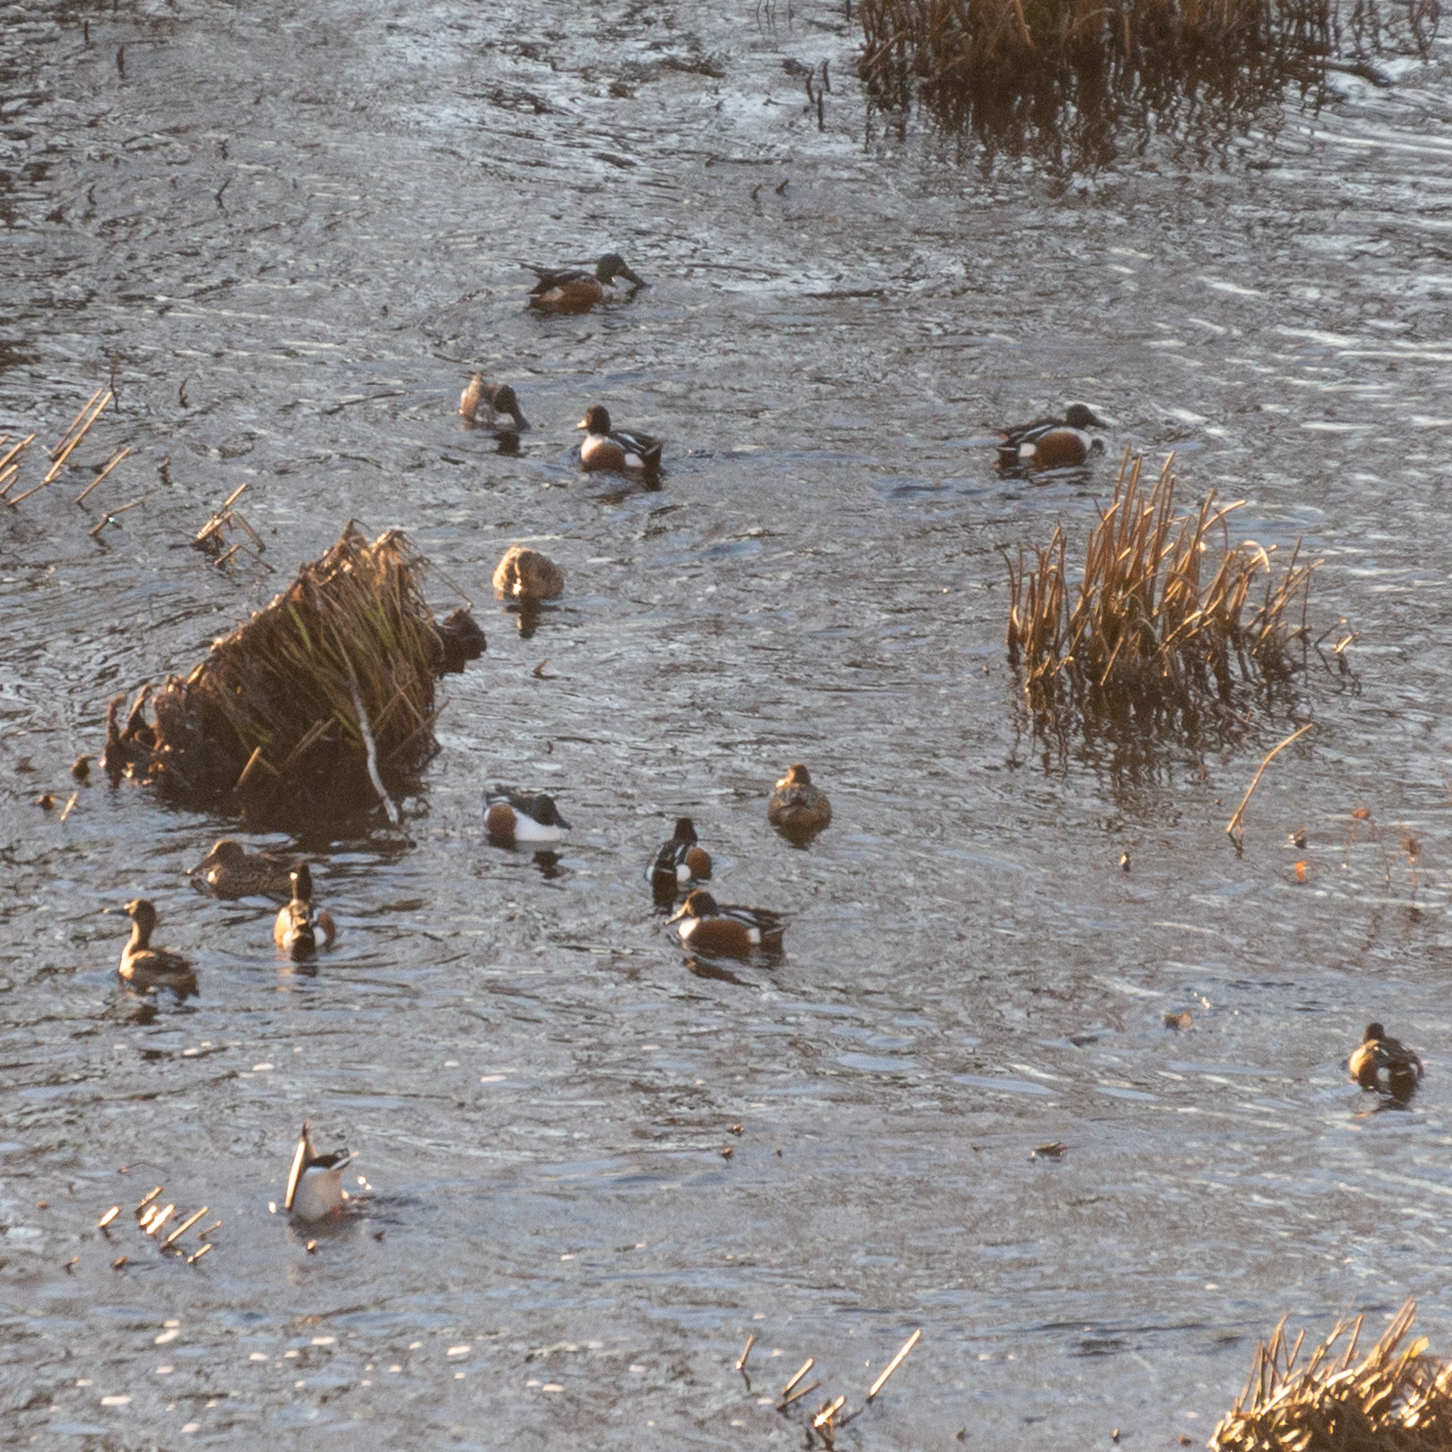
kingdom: Animalia
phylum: Chordata
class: Aves
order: Anseriformes
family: Anatidae
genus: Spatula
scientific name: Spatula clypeata
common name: Northern shoveler
